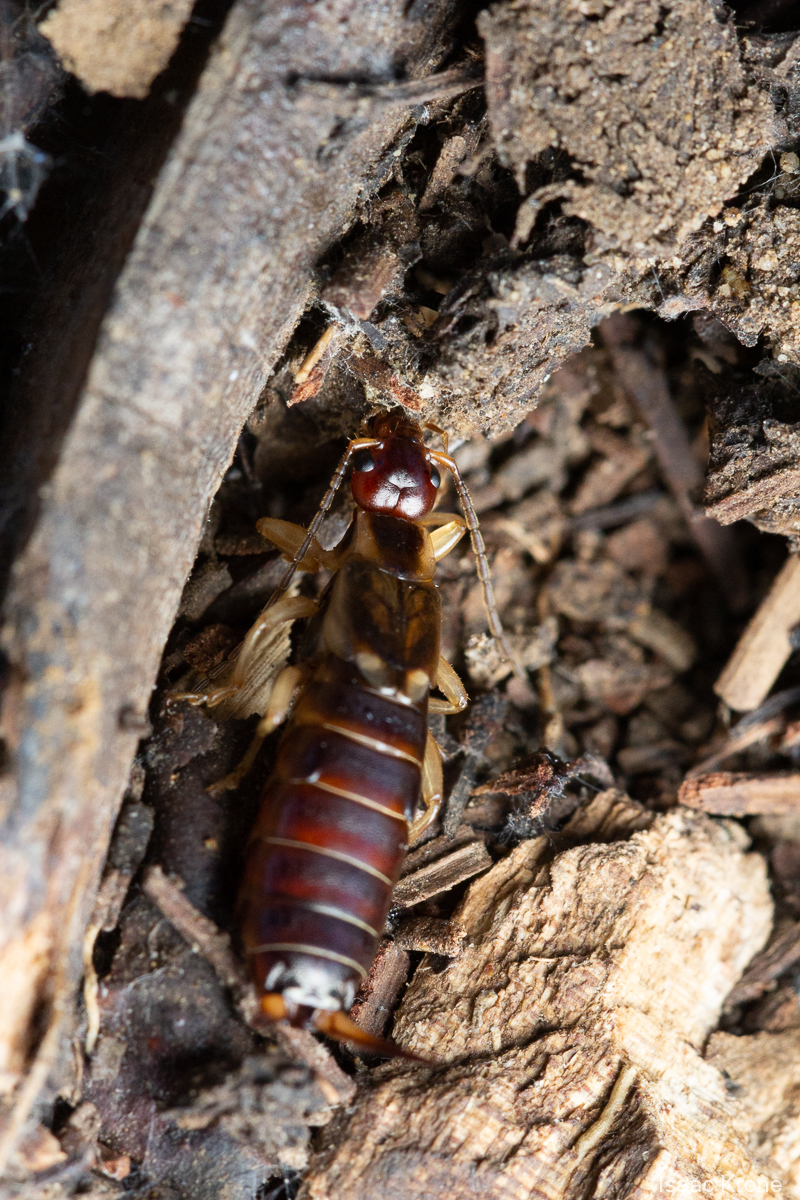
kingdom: Animalia
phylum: Arthropoda
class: Insecta
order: Dermaptera
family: Forficulidae
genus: Forficula
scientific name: Forficula
